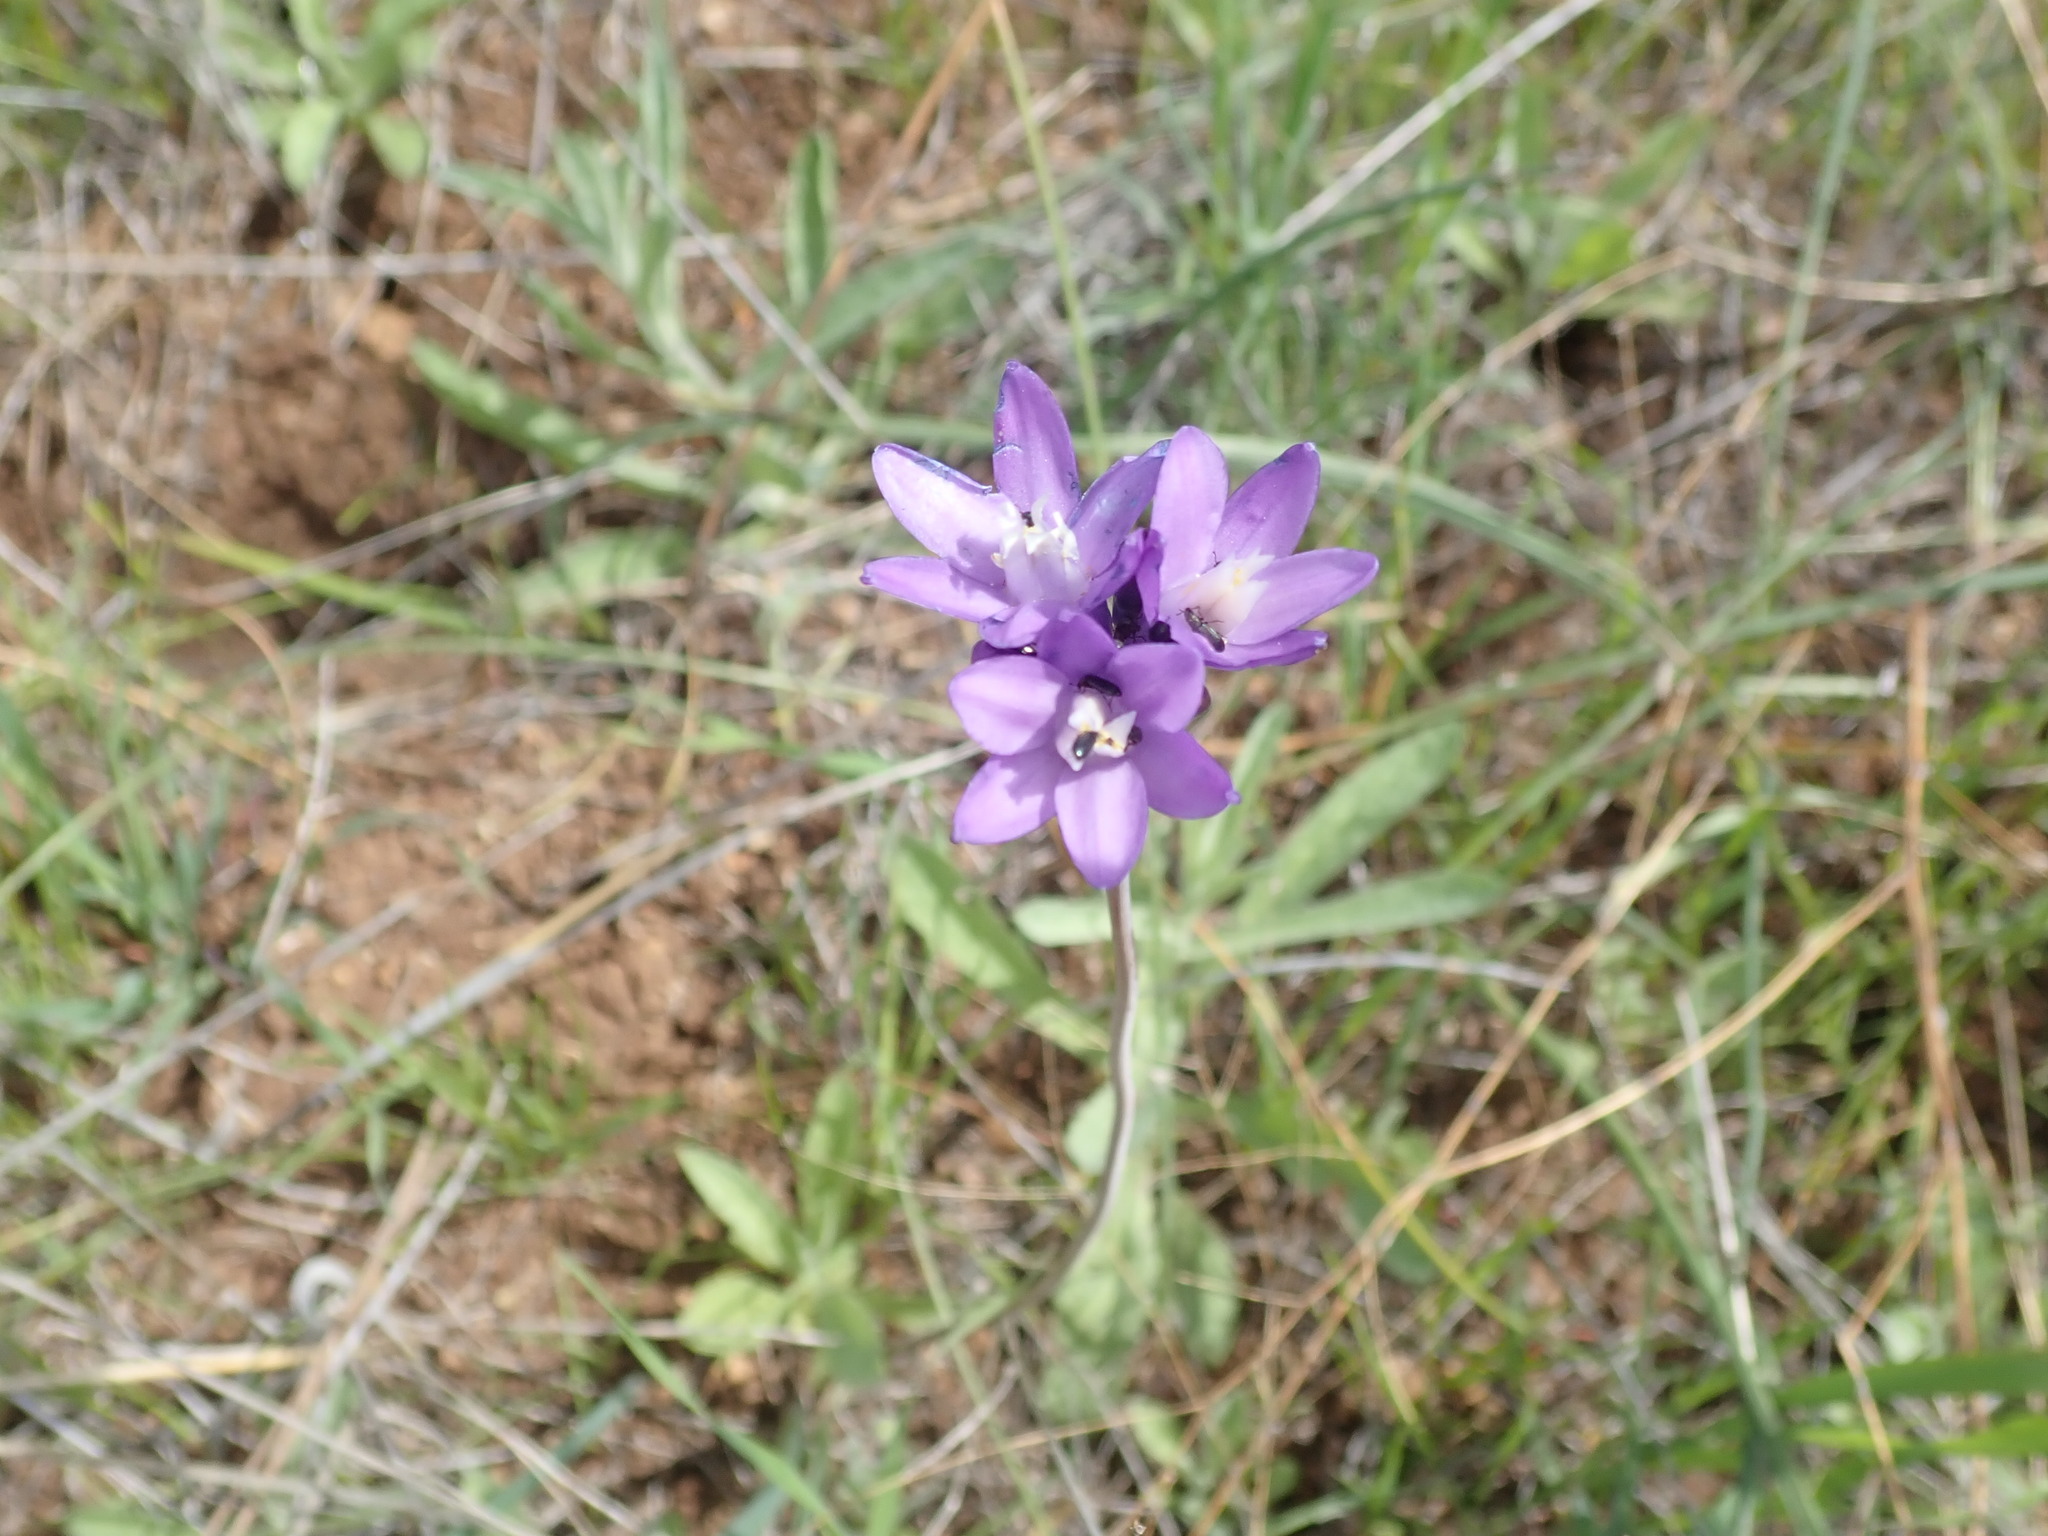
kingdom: Plantae
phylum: Tracheophyta
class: Liliopsida
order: Asparagales
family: Asparagaceae
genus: Dipterostemon
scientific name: Dipterostemon capitatus
